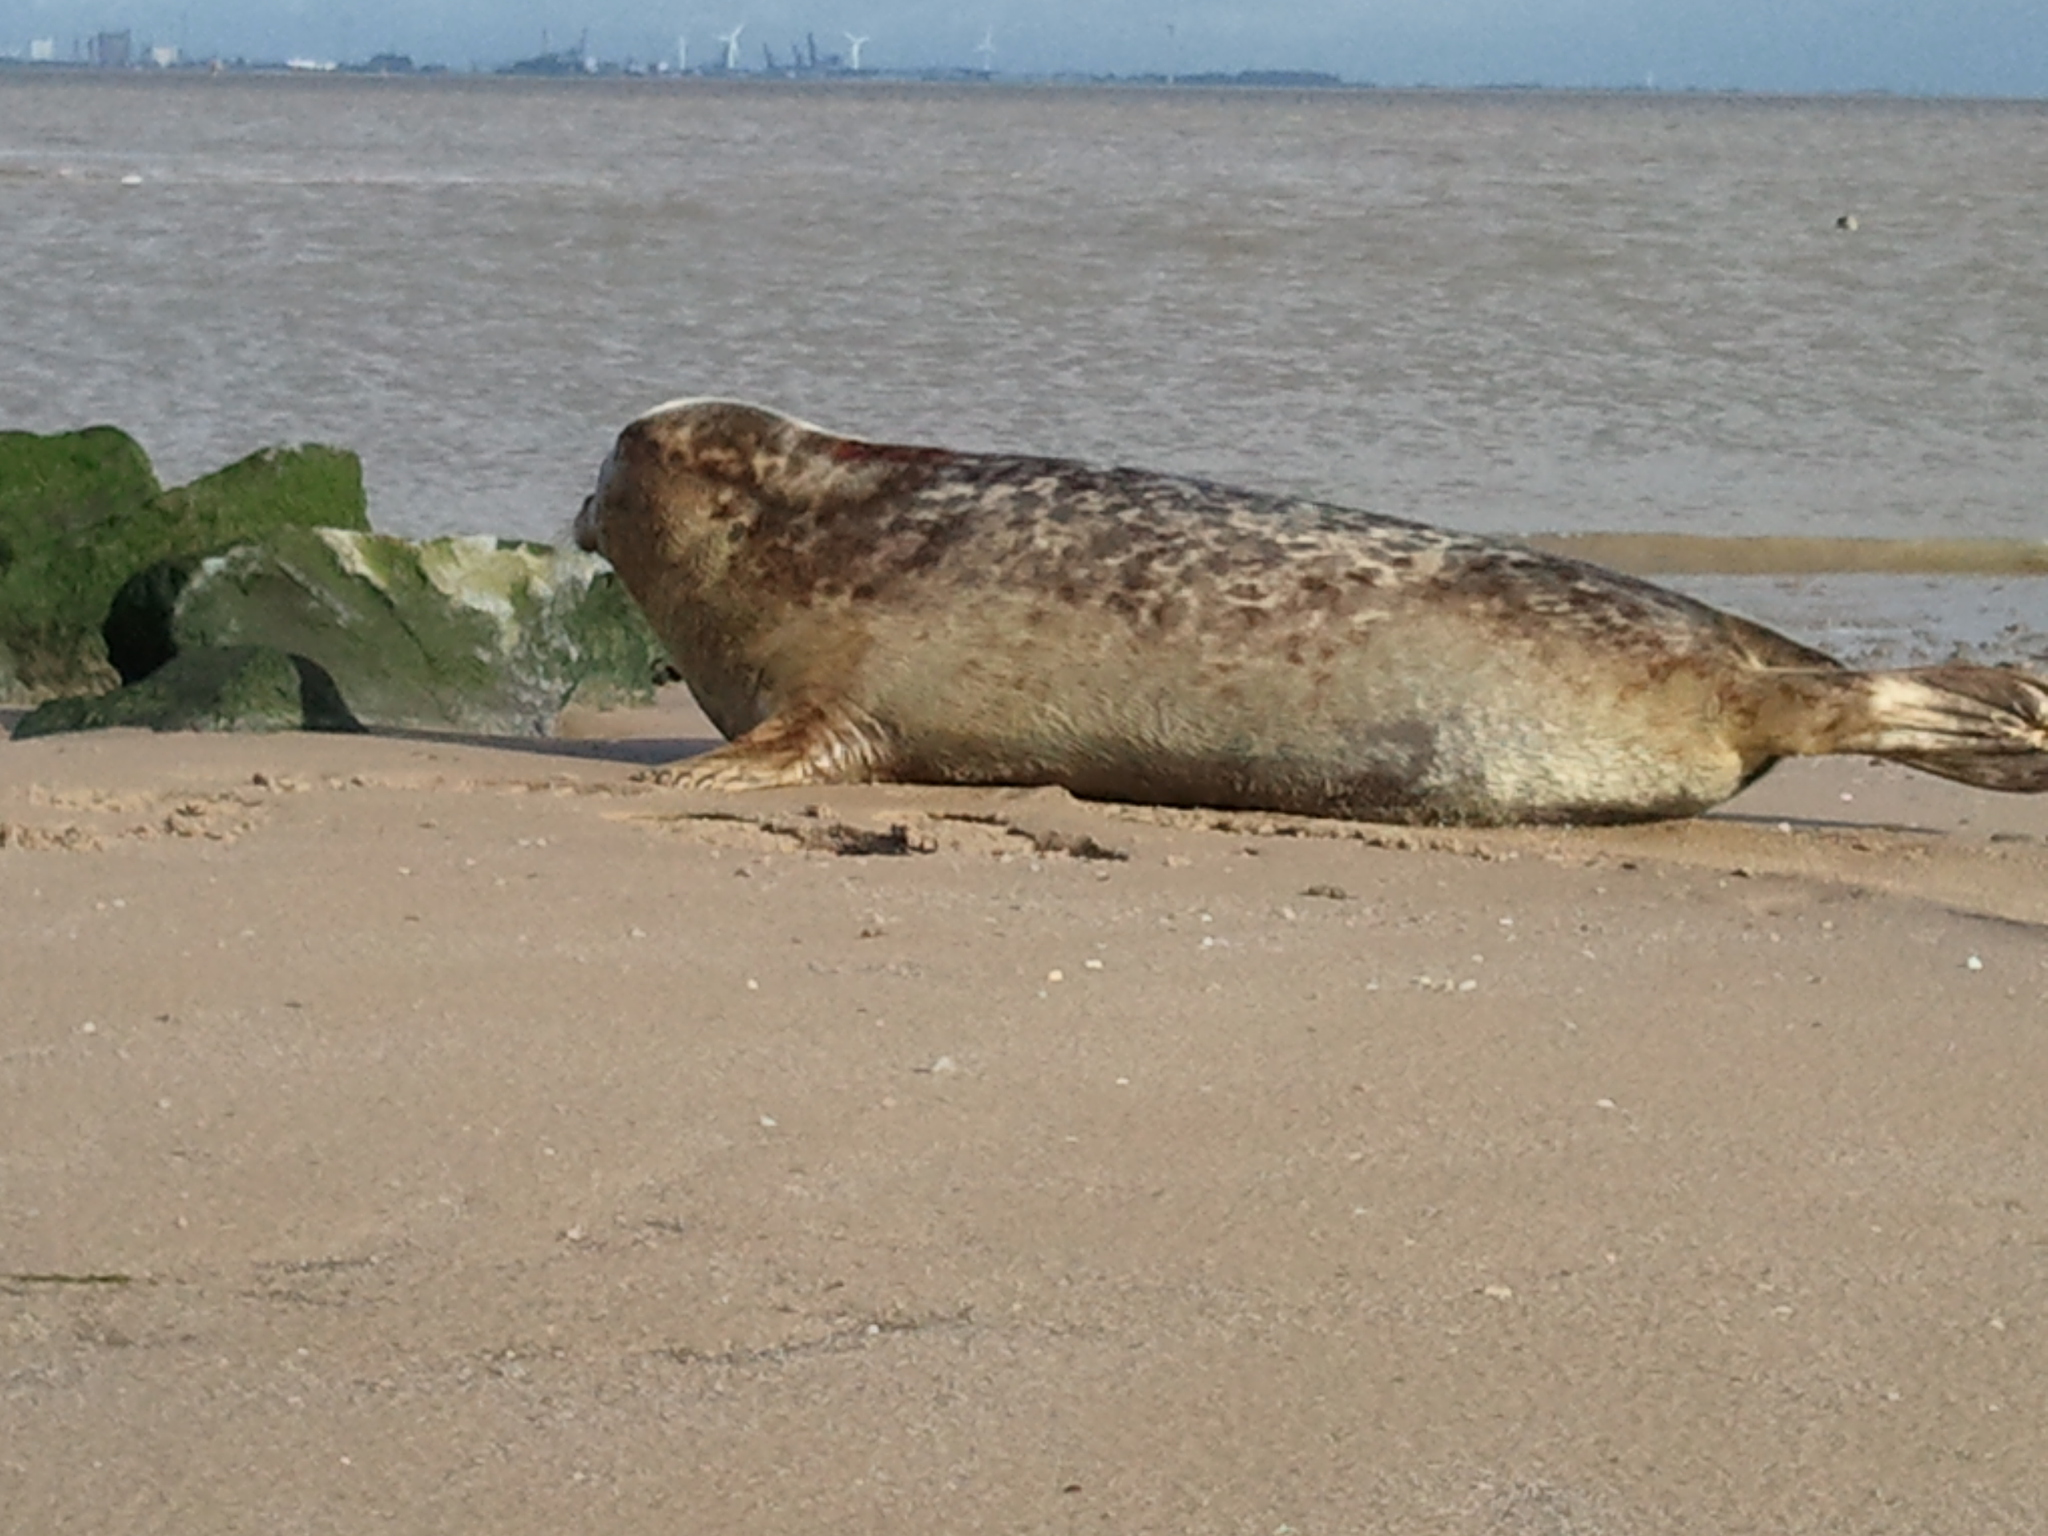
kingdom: Animalia
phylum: Chordata
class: Mammalia
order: Carnivora
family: Phocidae
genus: Phoca
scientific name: Phoca vitulina
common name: Harbor seal
